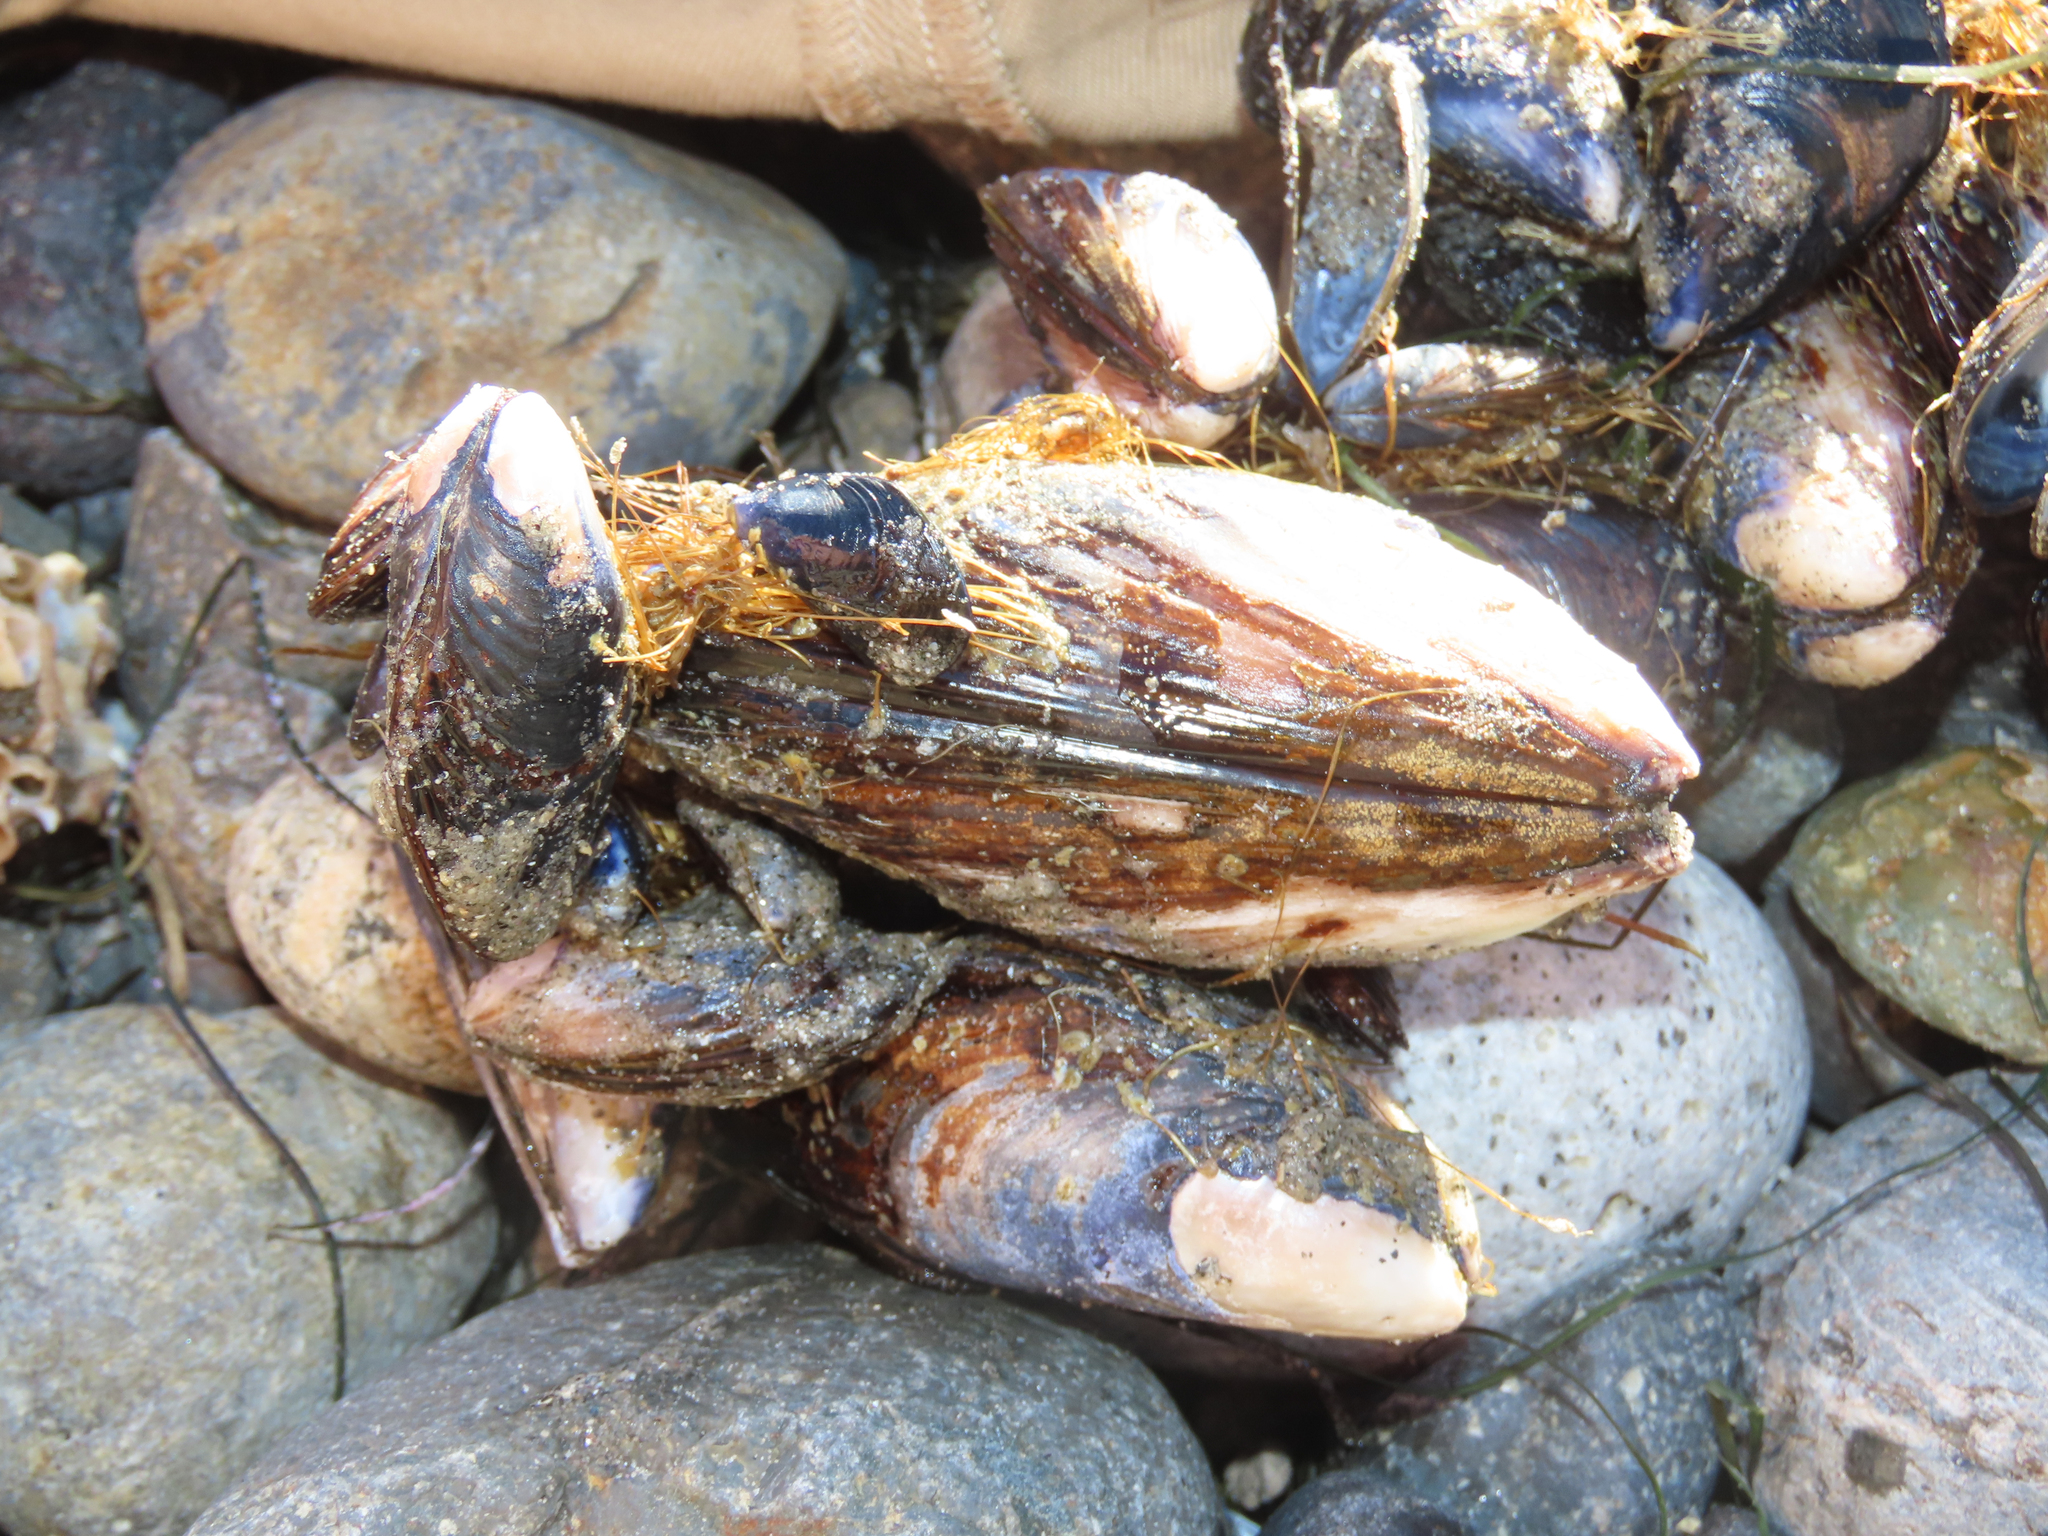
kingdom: Animalia
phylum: Mollusca
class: Bivalvia
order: Mytilida
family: Mytilidae
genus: Mytilus
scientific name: Mytilus californianus
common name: California mussel
